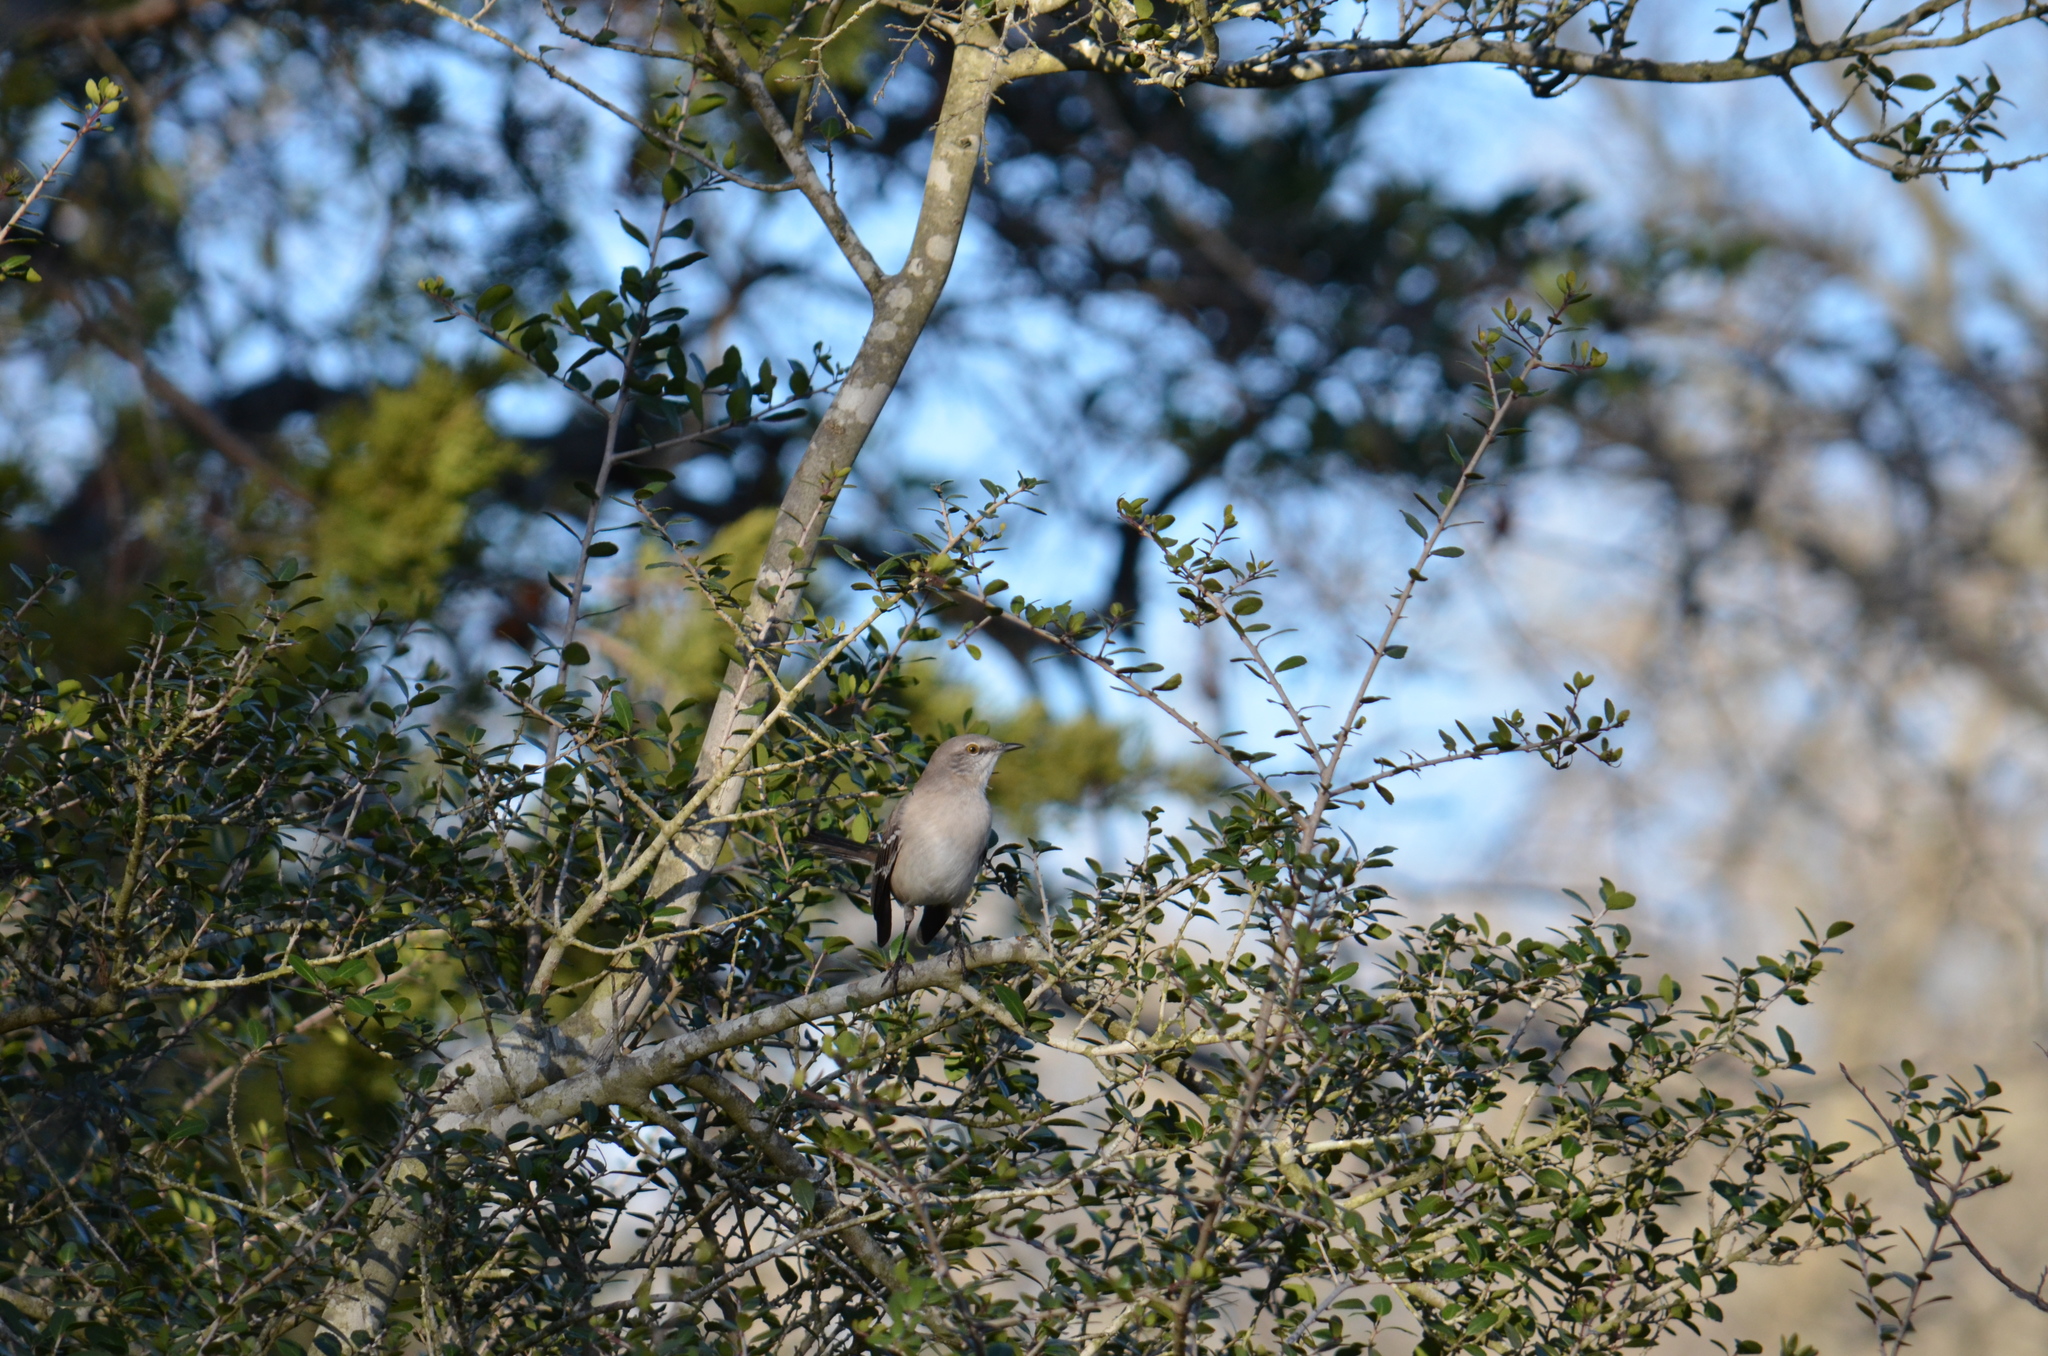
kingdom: Animalia
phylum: Chordata
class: Aves
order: Passeriformes
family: Mimidae
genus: Mimus
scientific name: Mimus polyglottos
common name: Northern mockingbird
